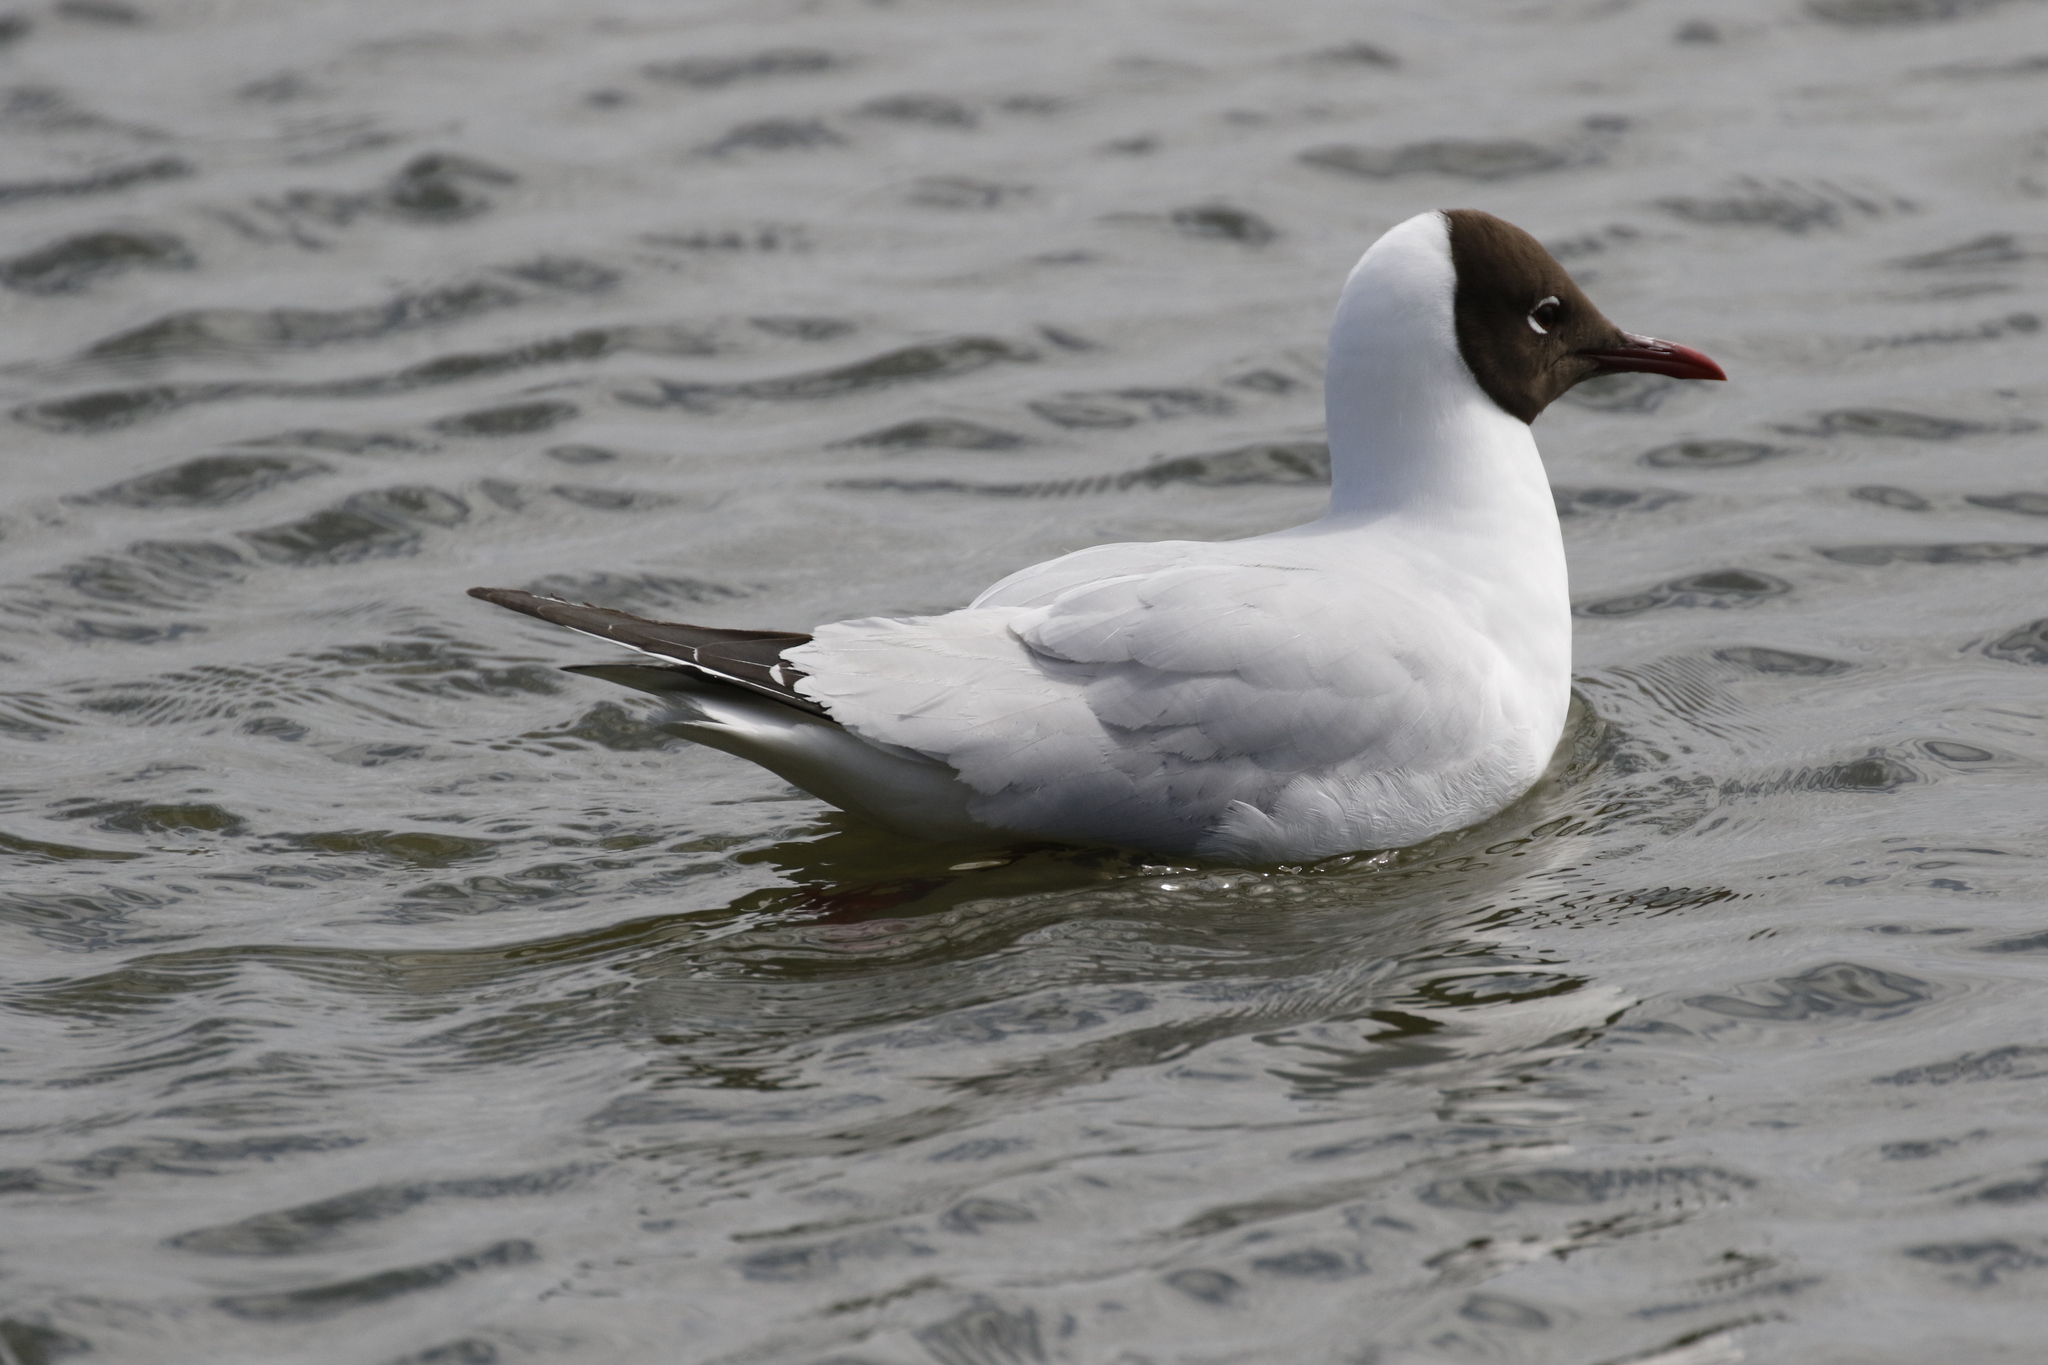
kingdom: Animalia
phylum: Chordata
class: Aves
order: Charadriiformes
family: Laridae
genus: Chroicocephalus
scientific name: Chroicocephalus ridibundus
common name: Black-headed gull
